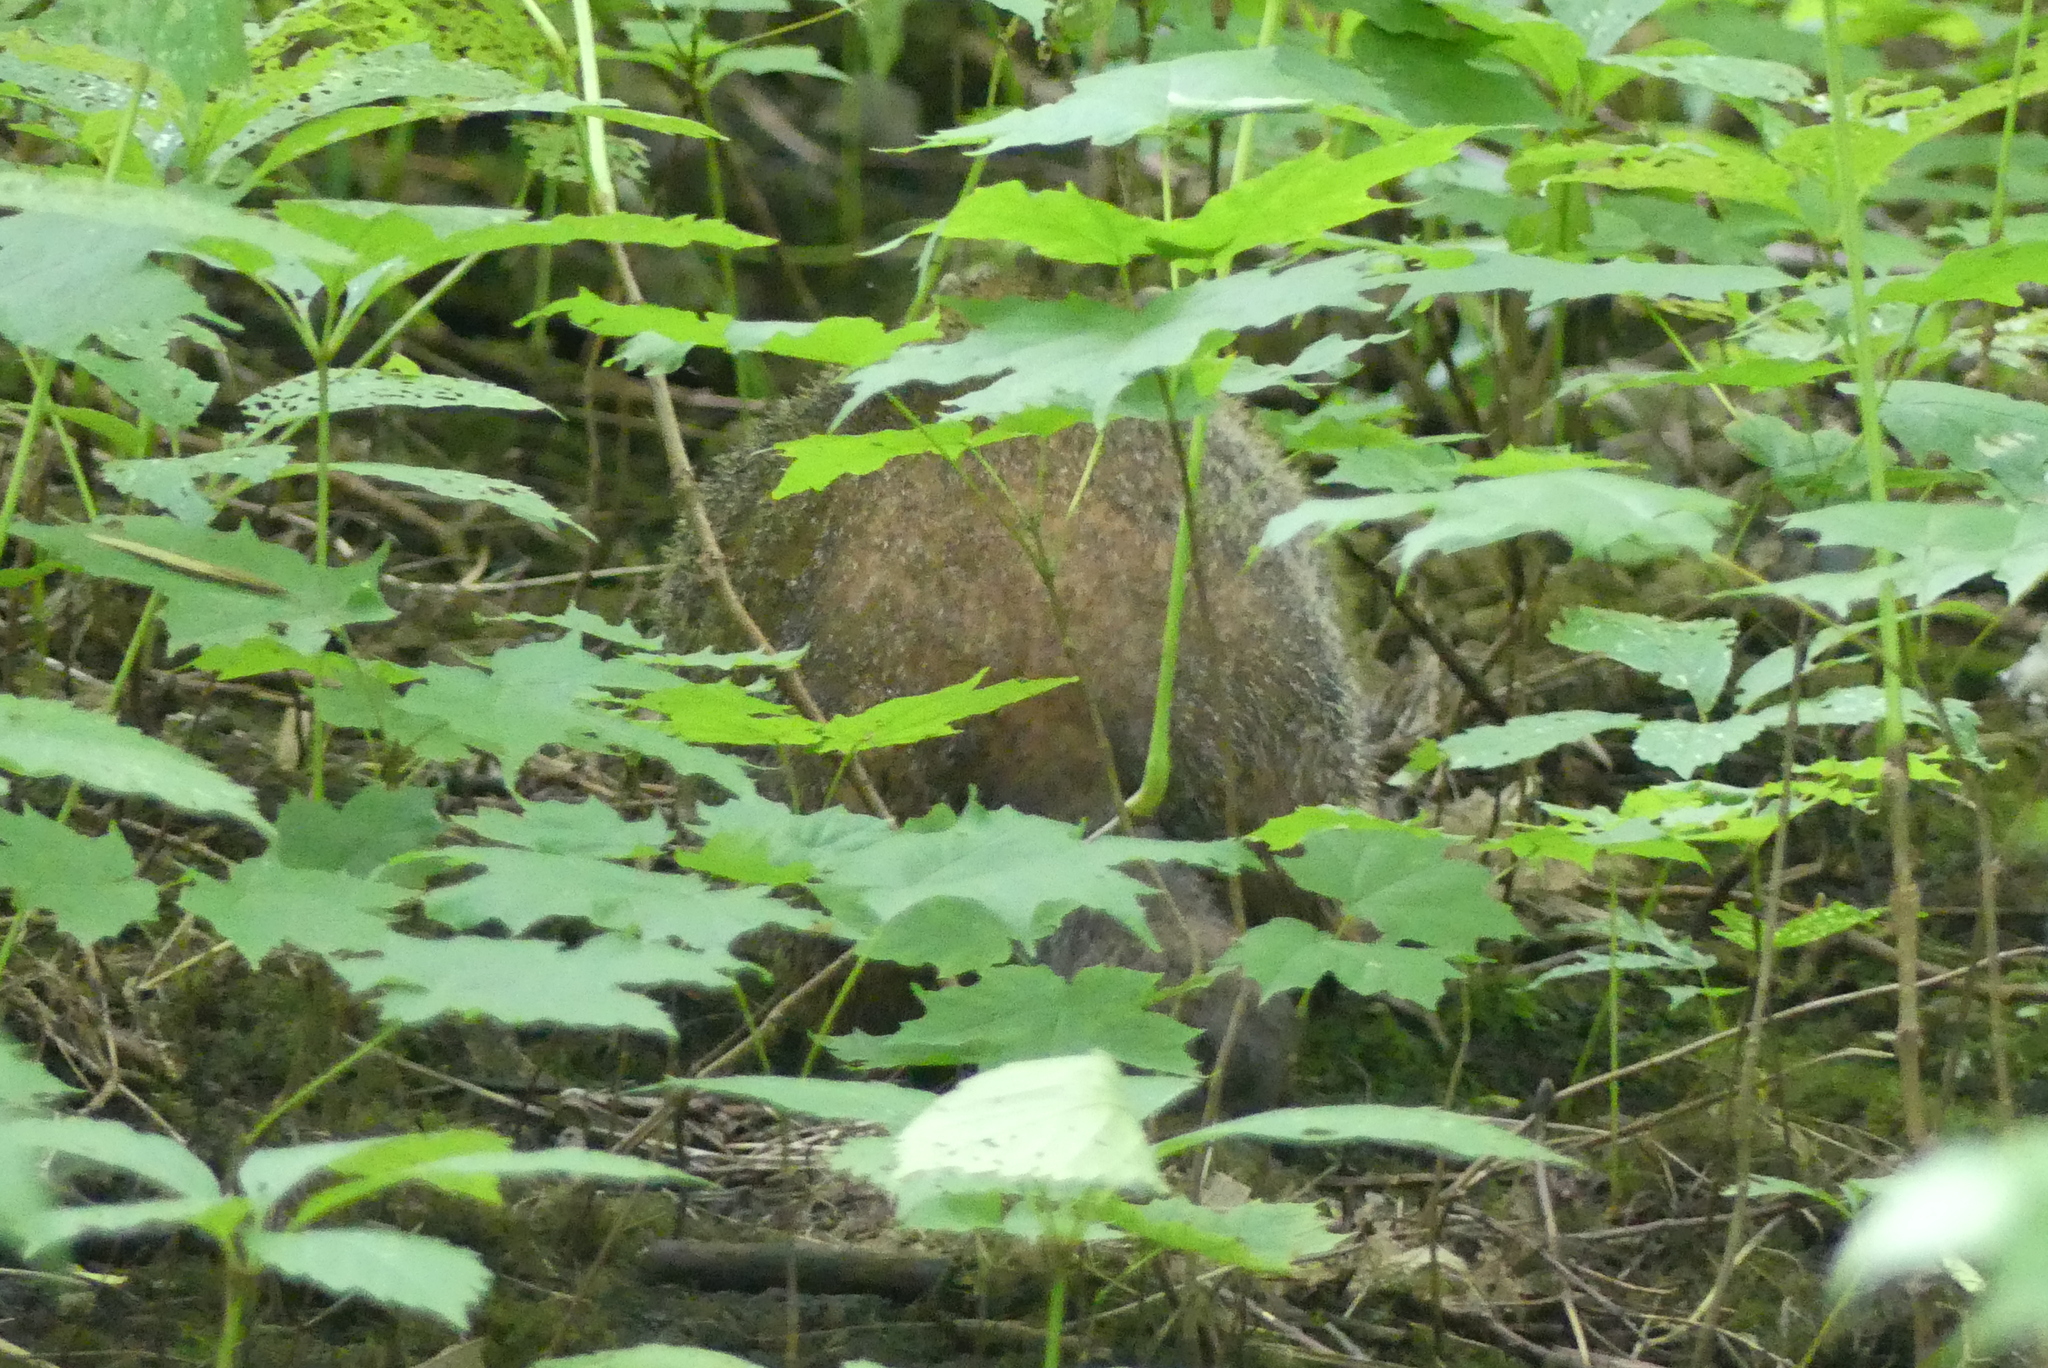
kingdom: Animalia
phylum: Chordata
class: Mammalia
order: Rodentia
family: Sciuridae
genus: Marmota
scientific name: Marmota monax
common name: Groundhog
